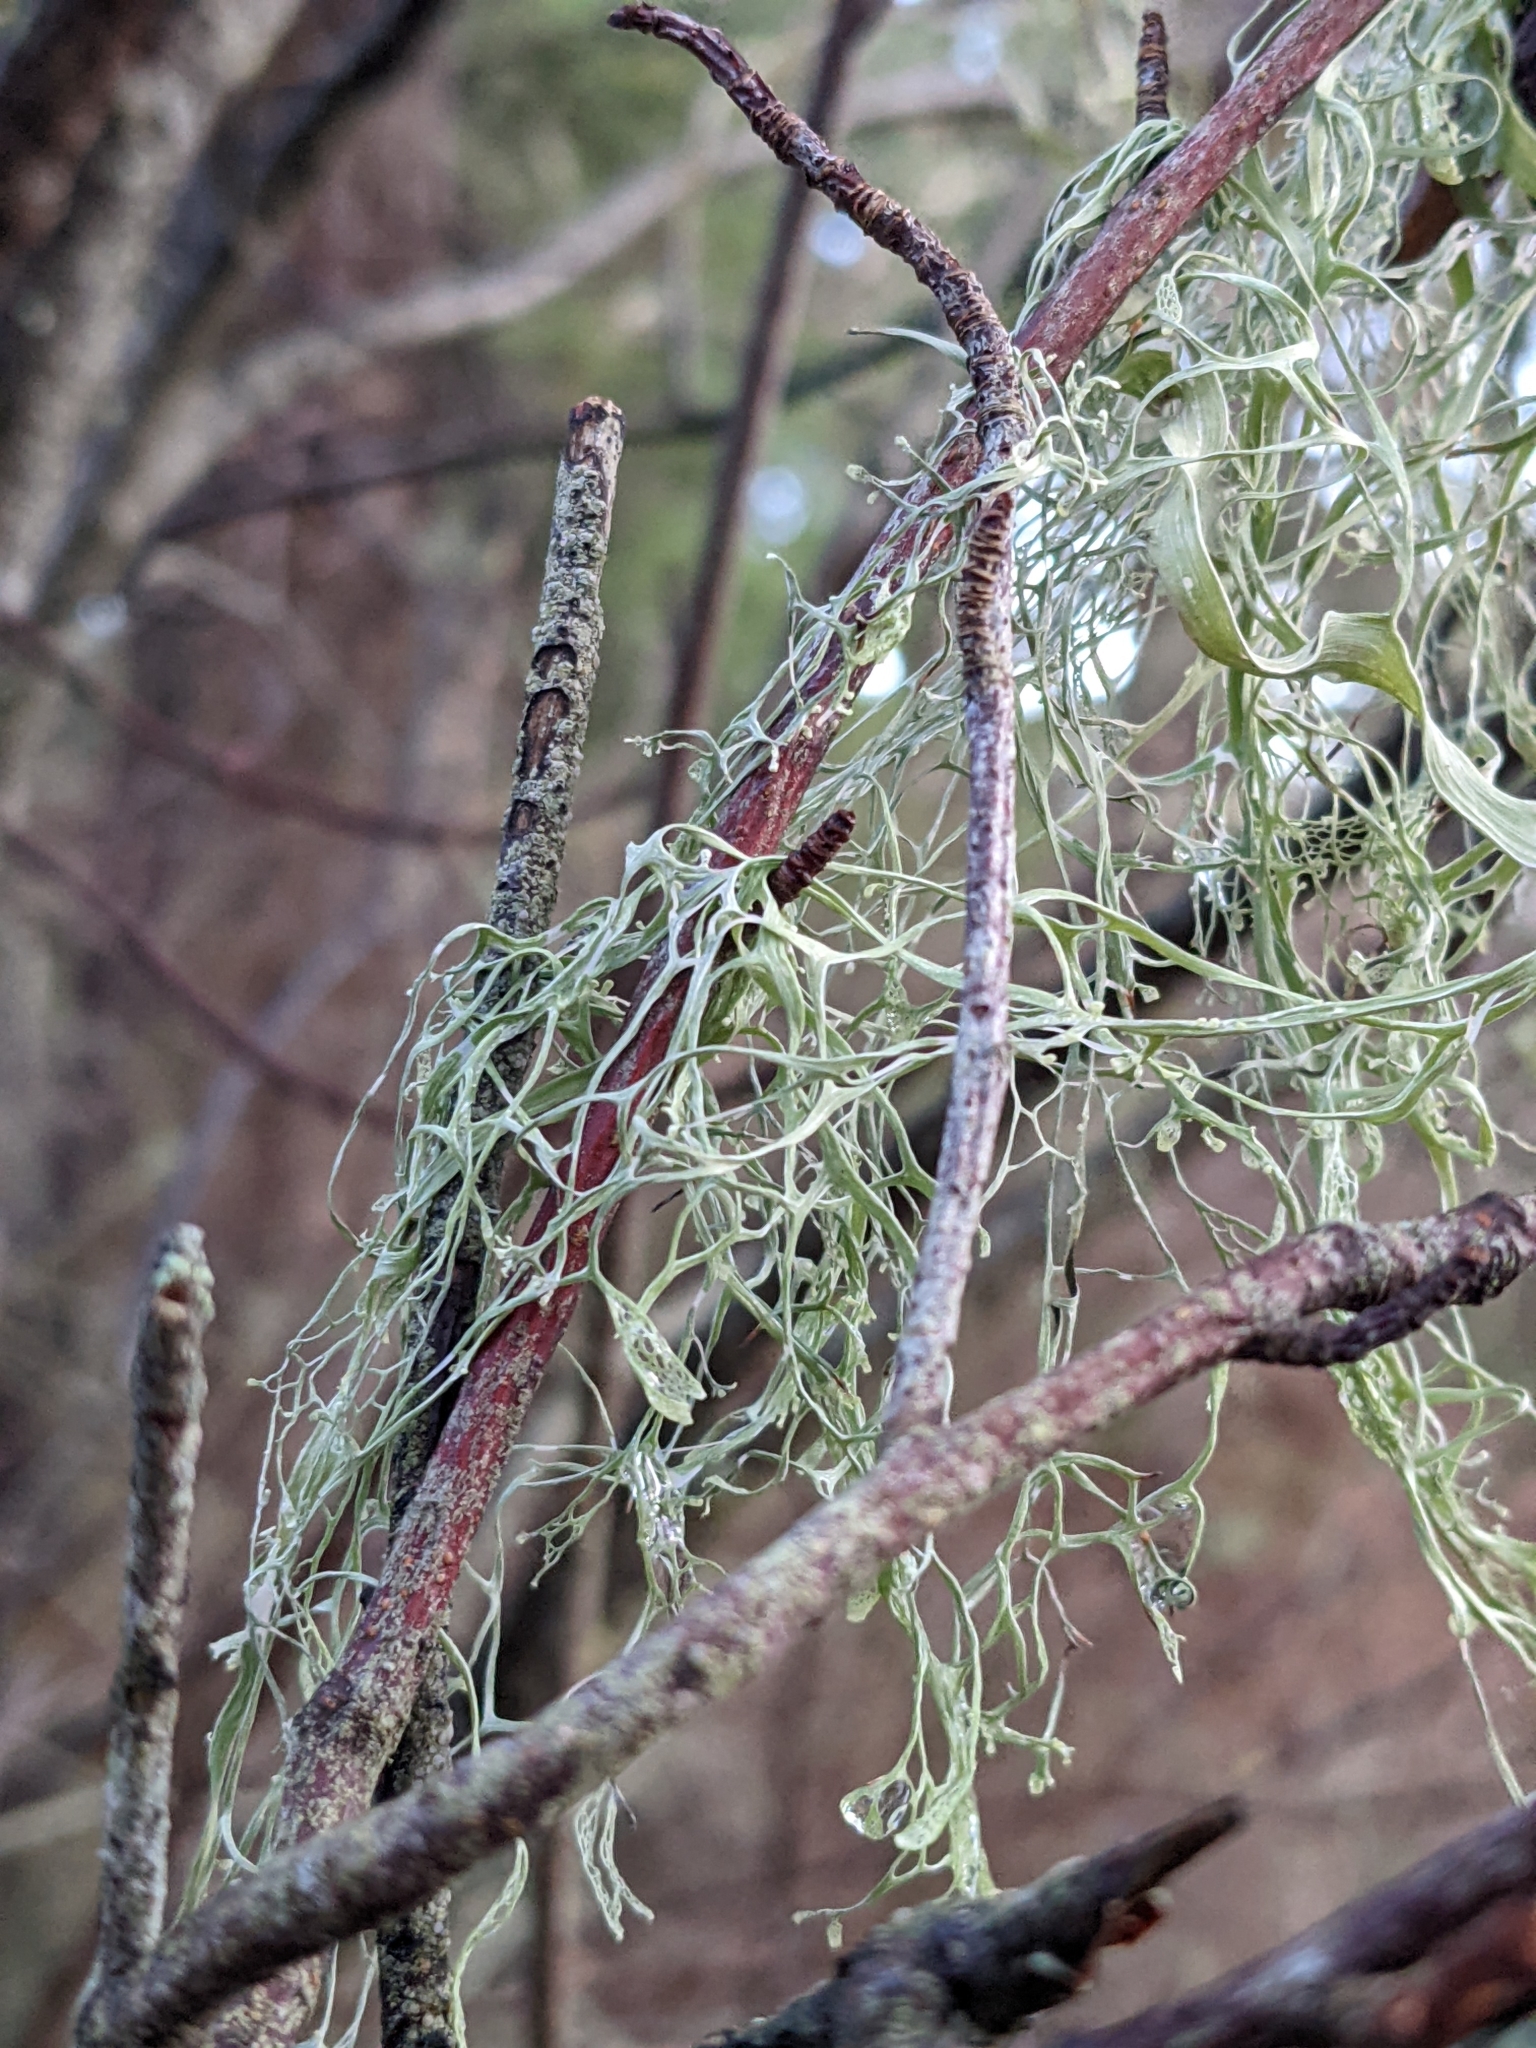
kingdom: Fungi
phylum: Ascomycota
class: Lecanoromycetes
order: Lecanorales
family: Ramalinaceae
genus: Ramalina
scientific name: Ramalina menziesii
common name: Lace lichen
